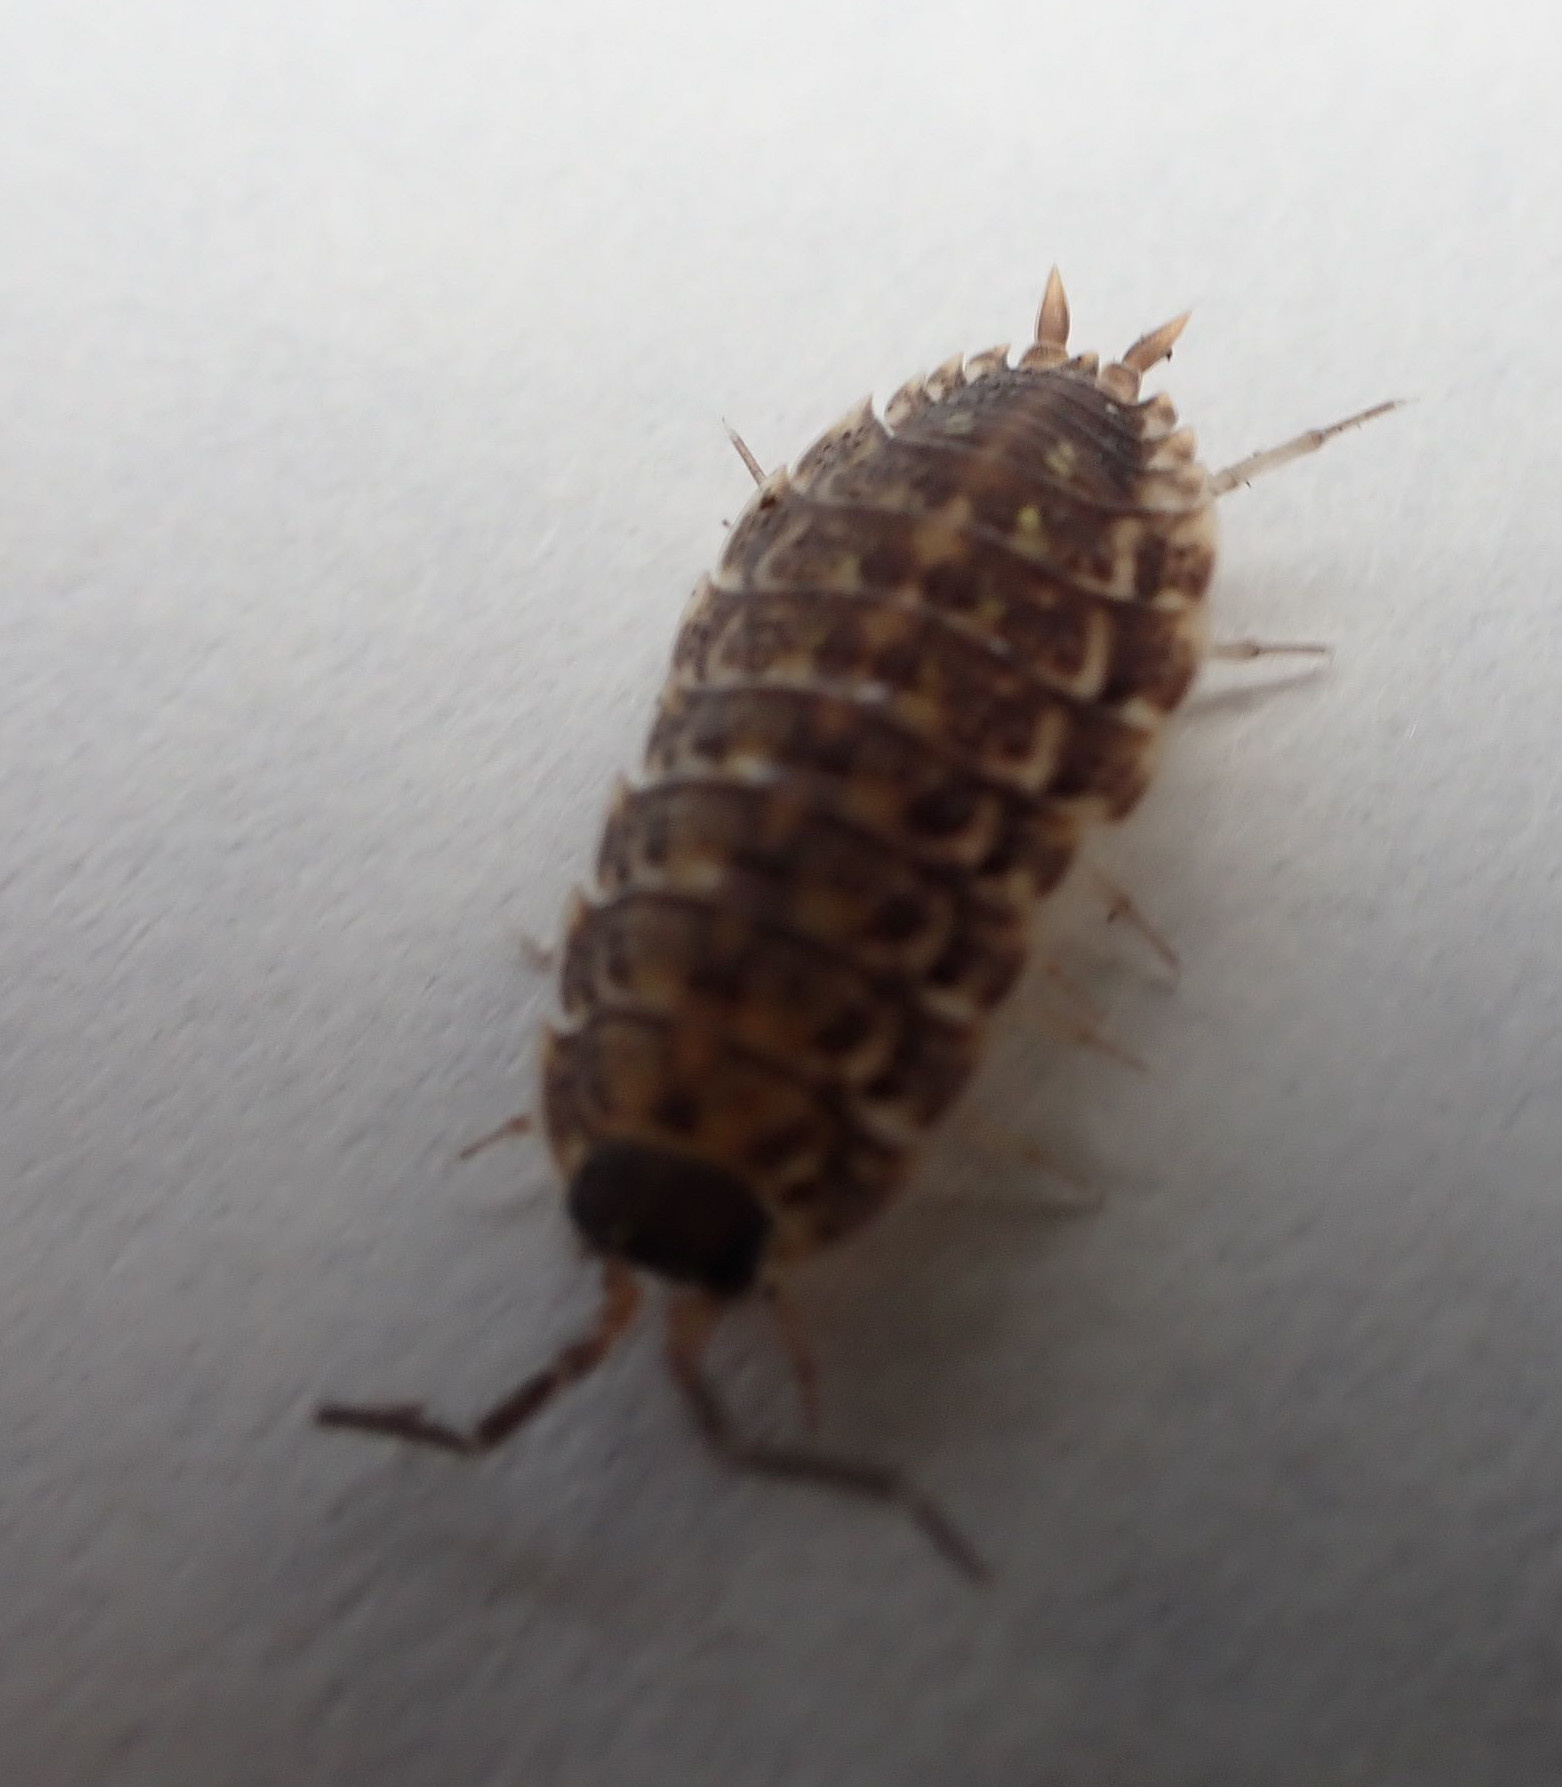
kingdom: Animalia
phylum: Arthropoda
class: Malacostraca
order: Isopoda
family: Porcellionidae
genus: Porcellio
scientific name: Porcellio spinicornis
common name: Painted woodlouse
